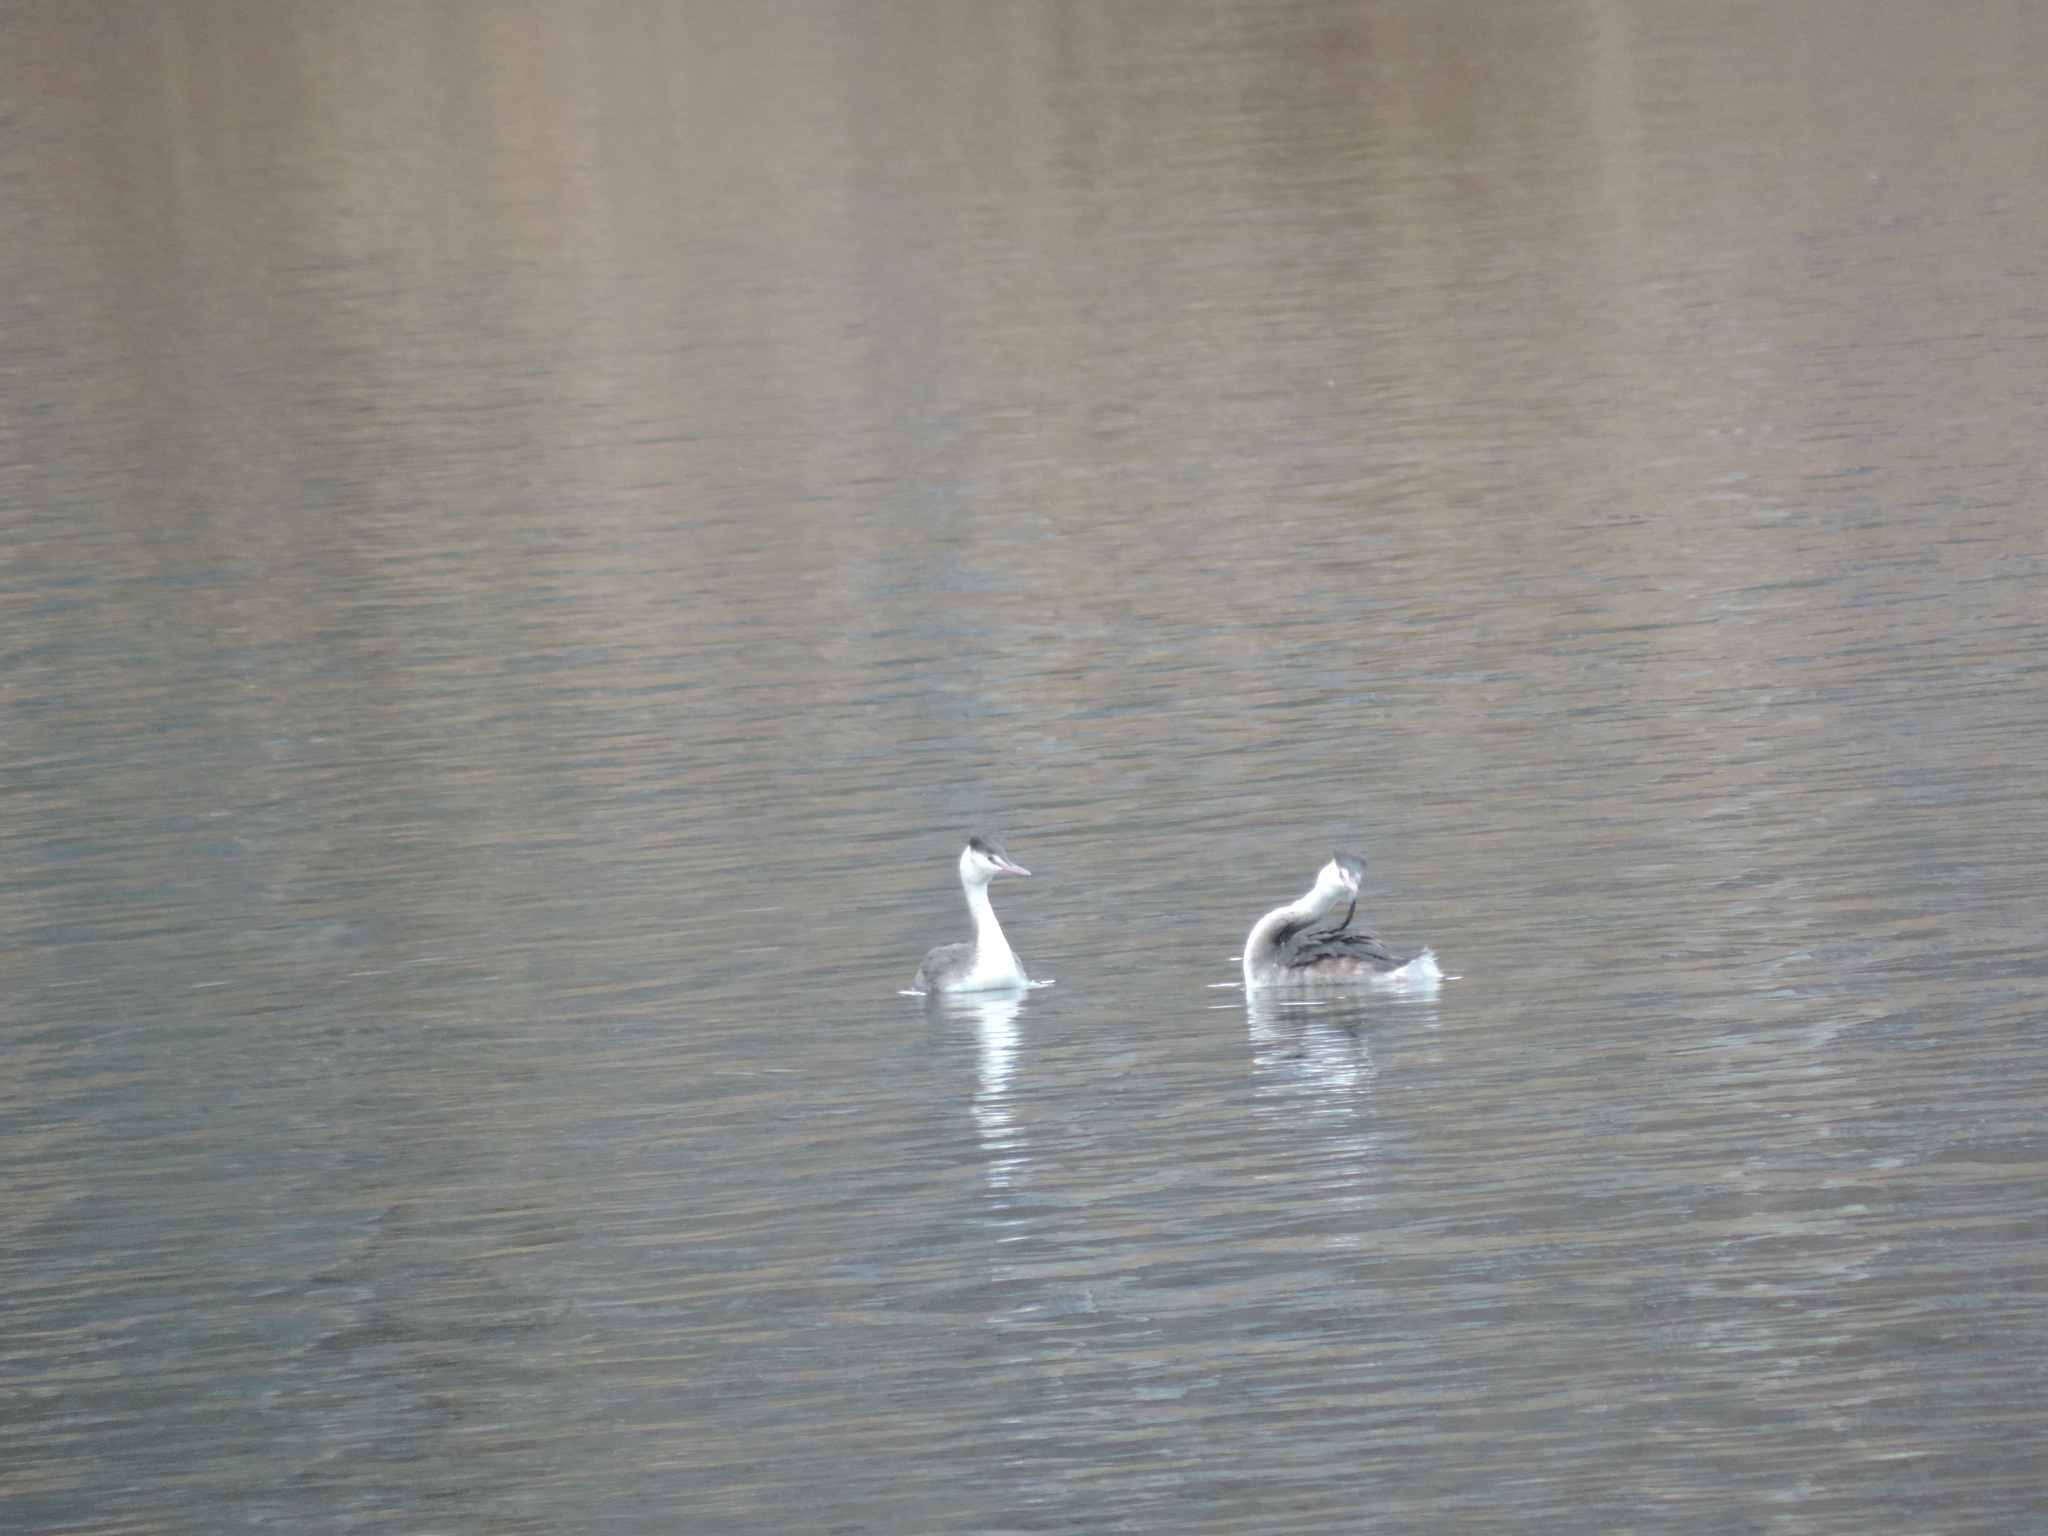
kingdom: Animalia
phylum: Chordata
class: Aves
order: Podicipediformes
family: Podicipedidae
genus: Podiceps
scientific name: Podiceps cristatus
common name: Great crested grebe
